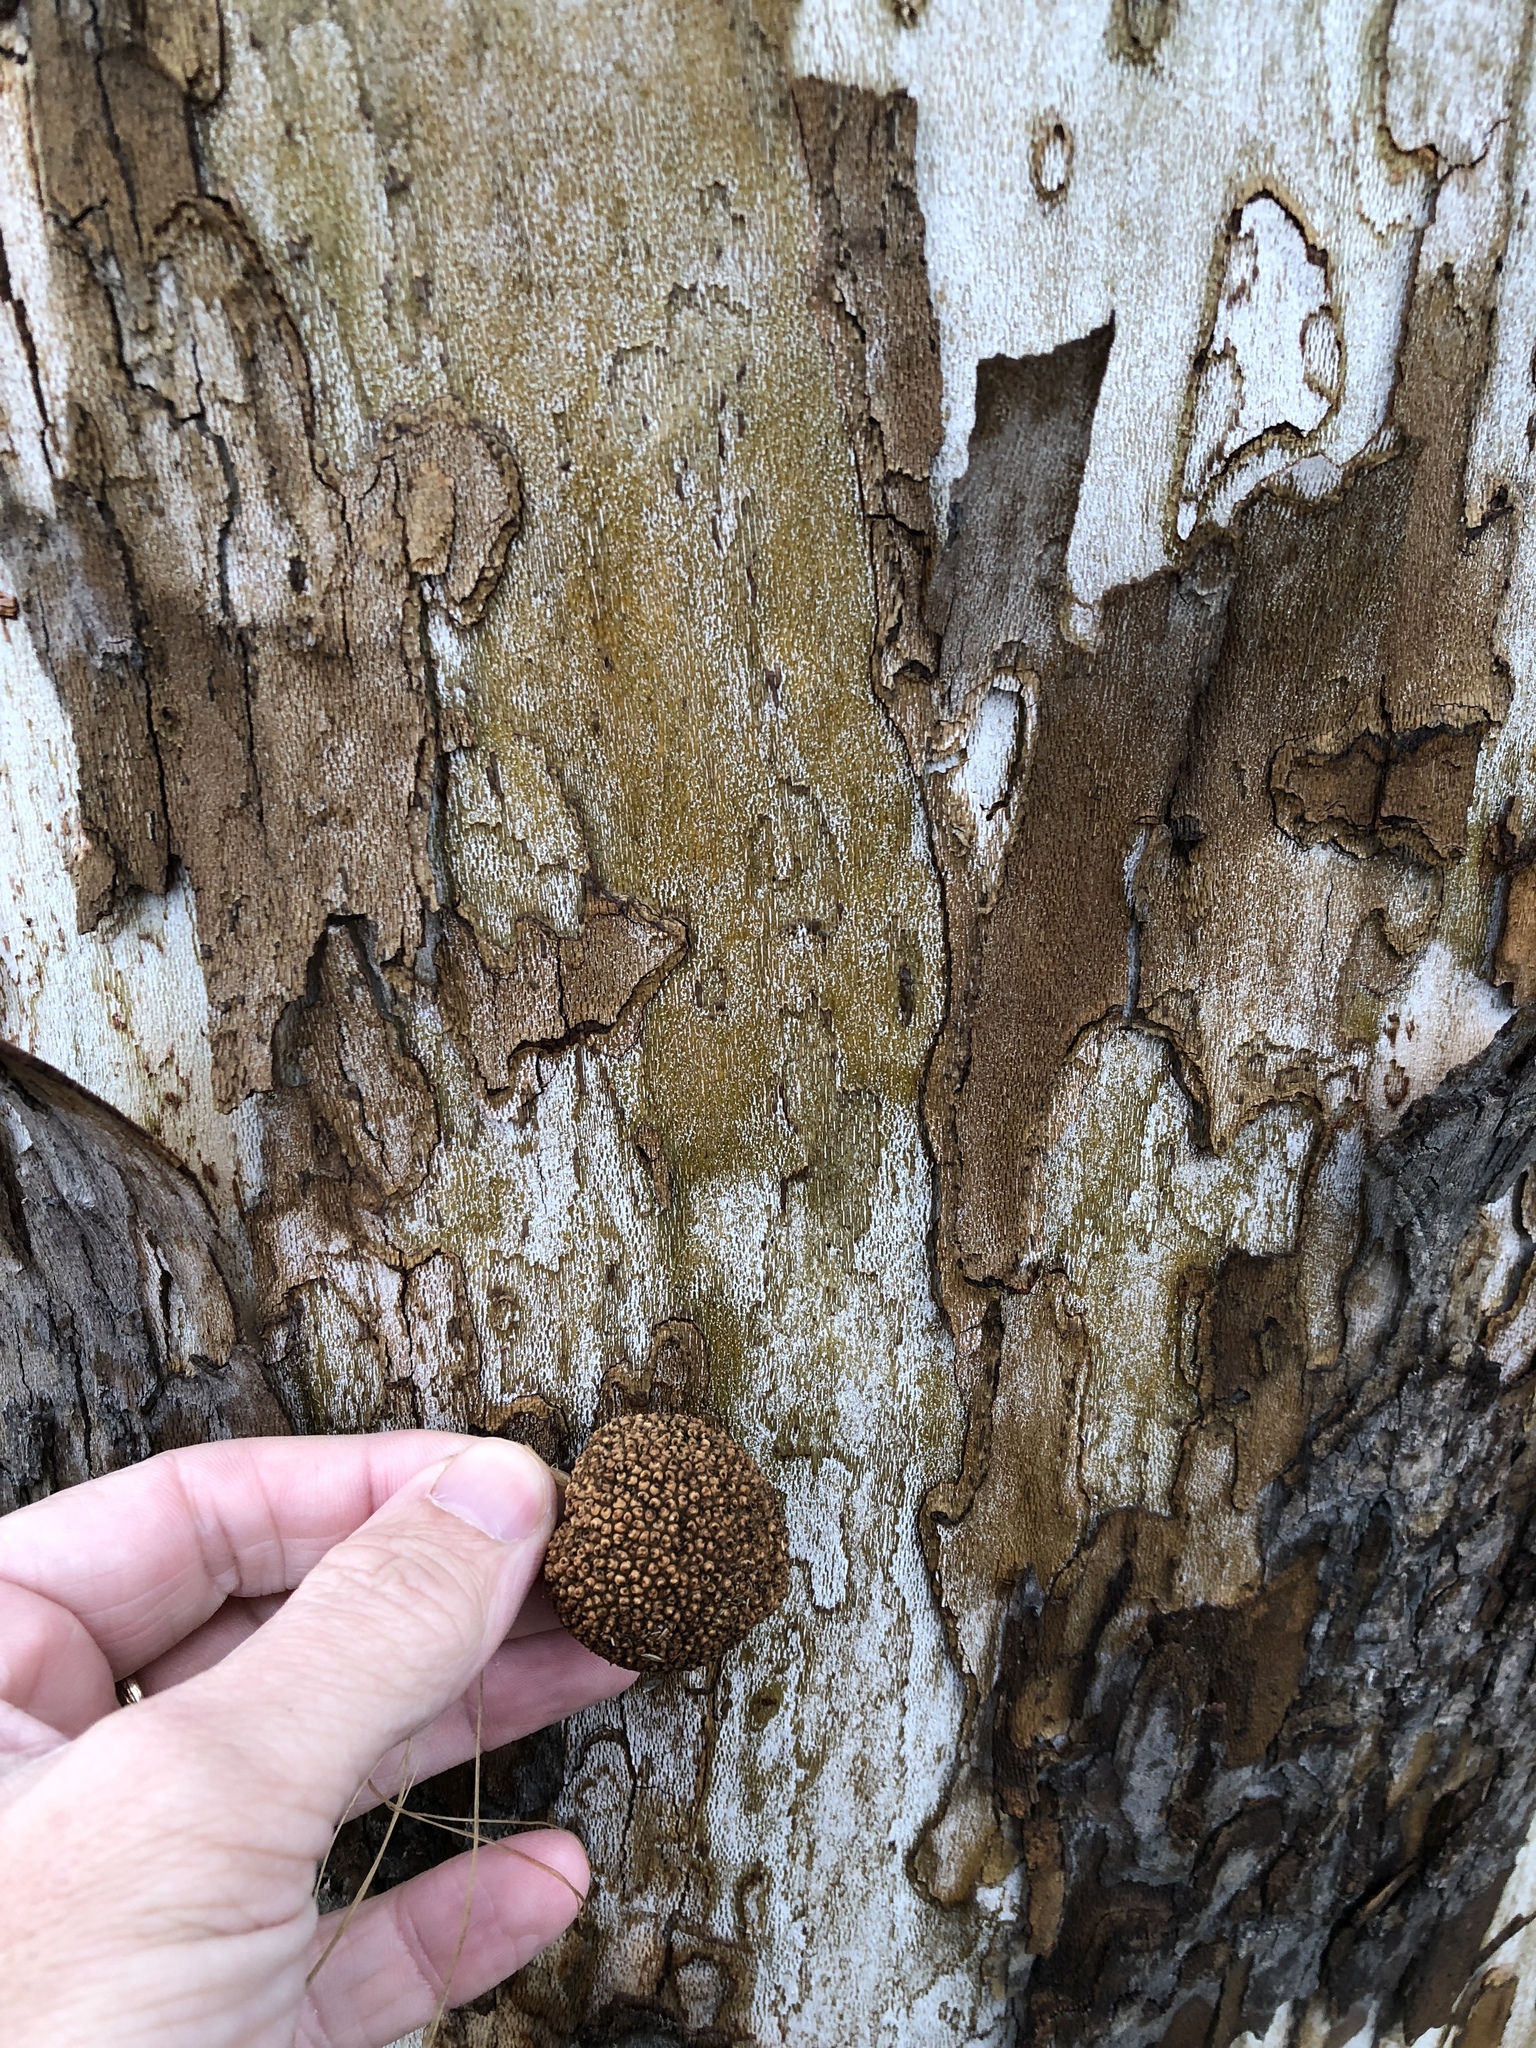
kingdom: Plantae
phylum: Tracheophyta
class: Magnoliopsida
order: Proteales
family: Platanaceae
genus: Platanus
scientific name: Platanus occidentalis
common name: American sycamore
